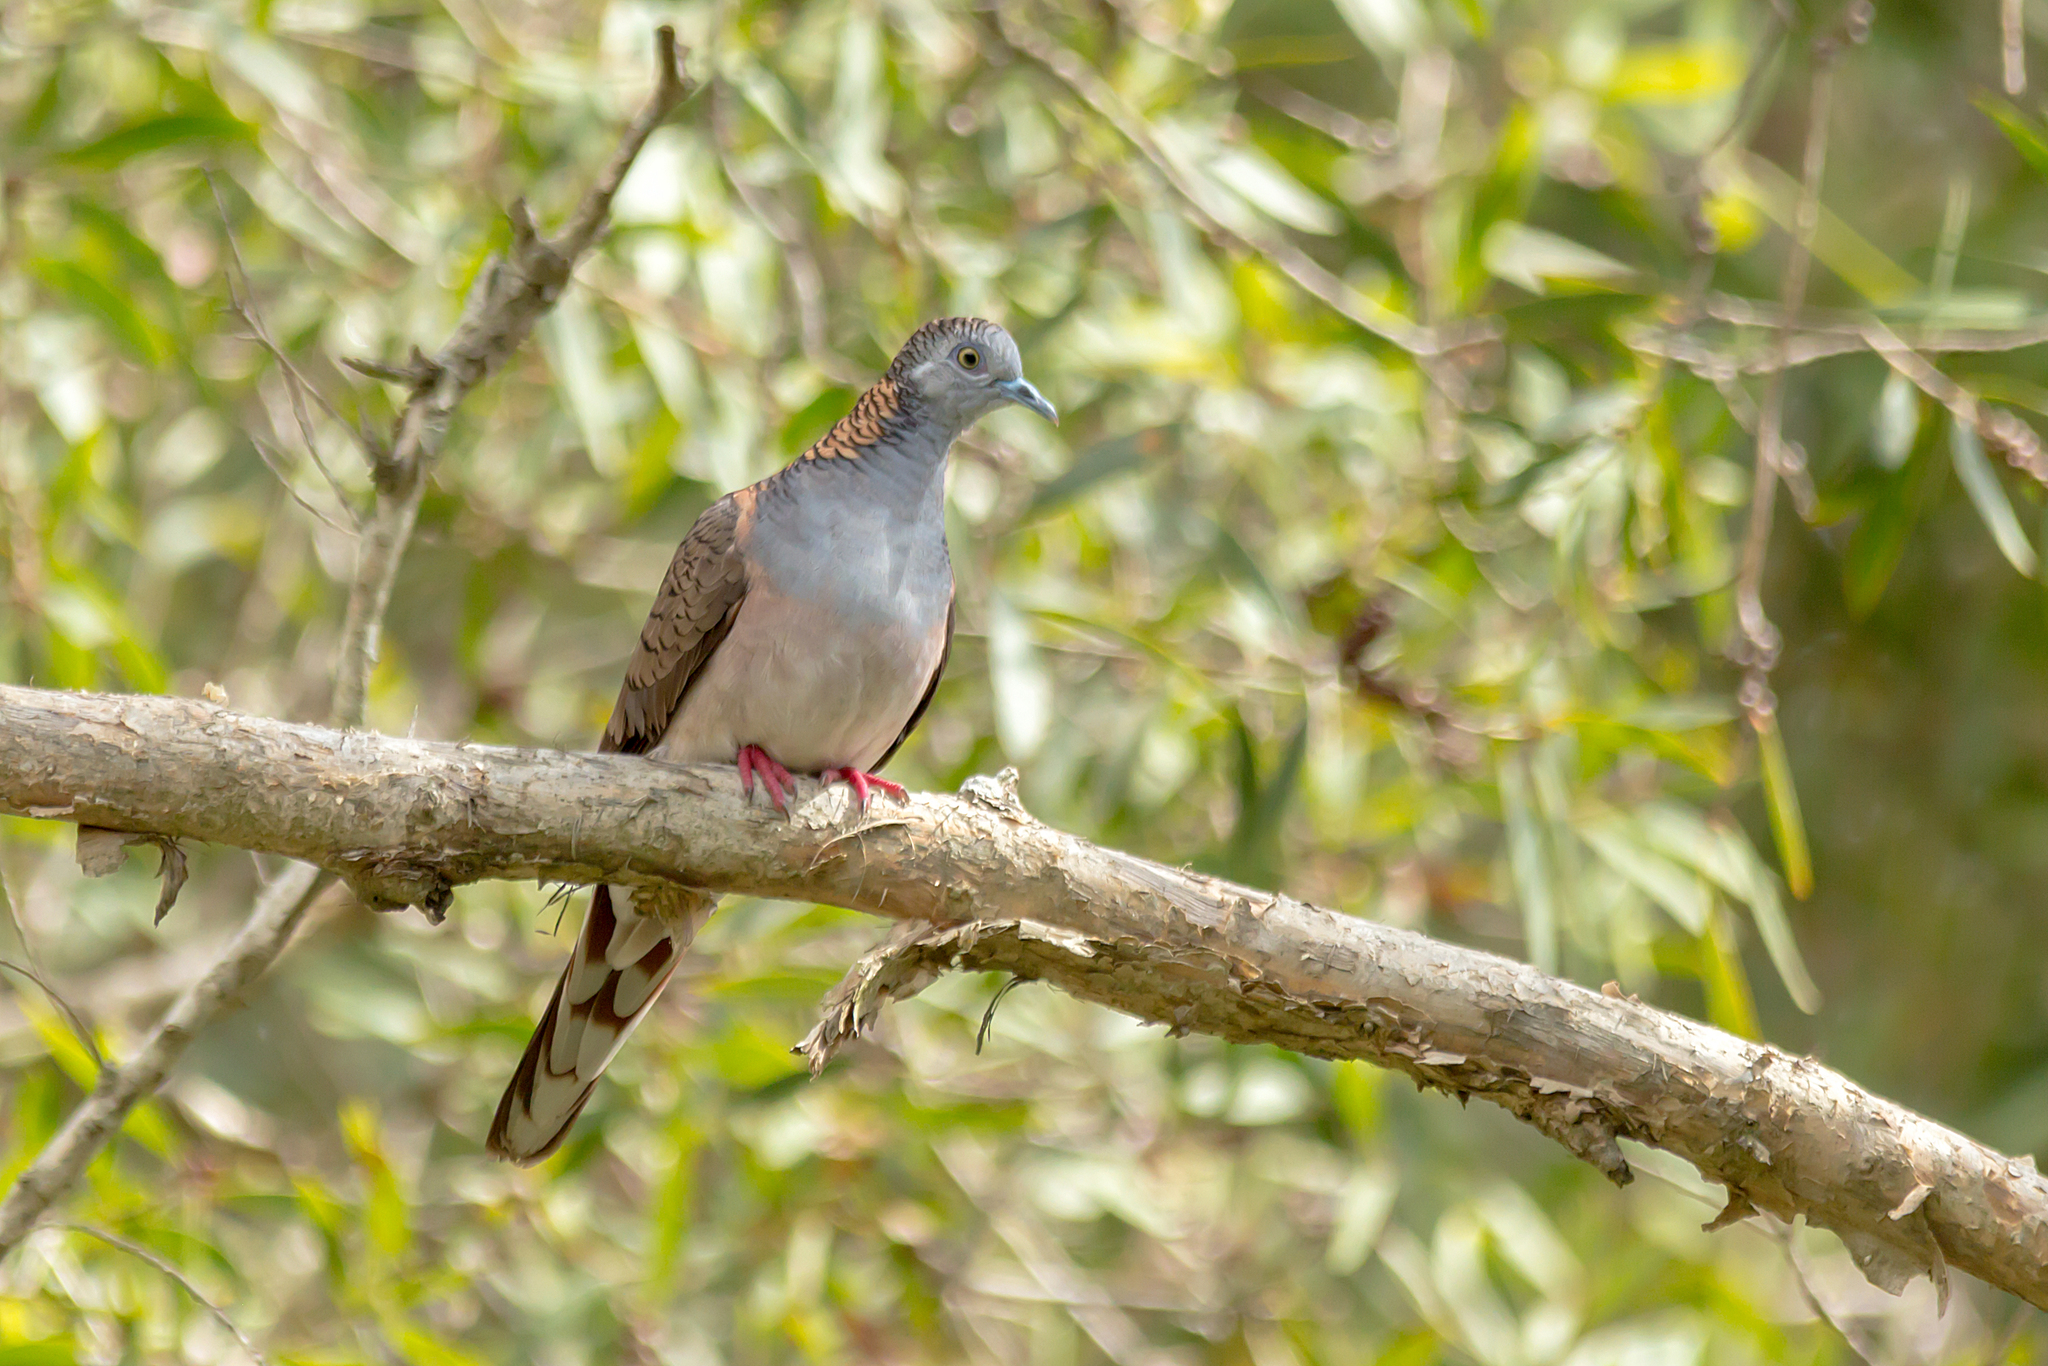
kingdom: Animalia
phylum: Chordata
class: Aves
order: Columbiformes
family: Columbidae
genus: Geopelia
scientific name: Geopelia humeralis
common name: Bar-shouldered dove
